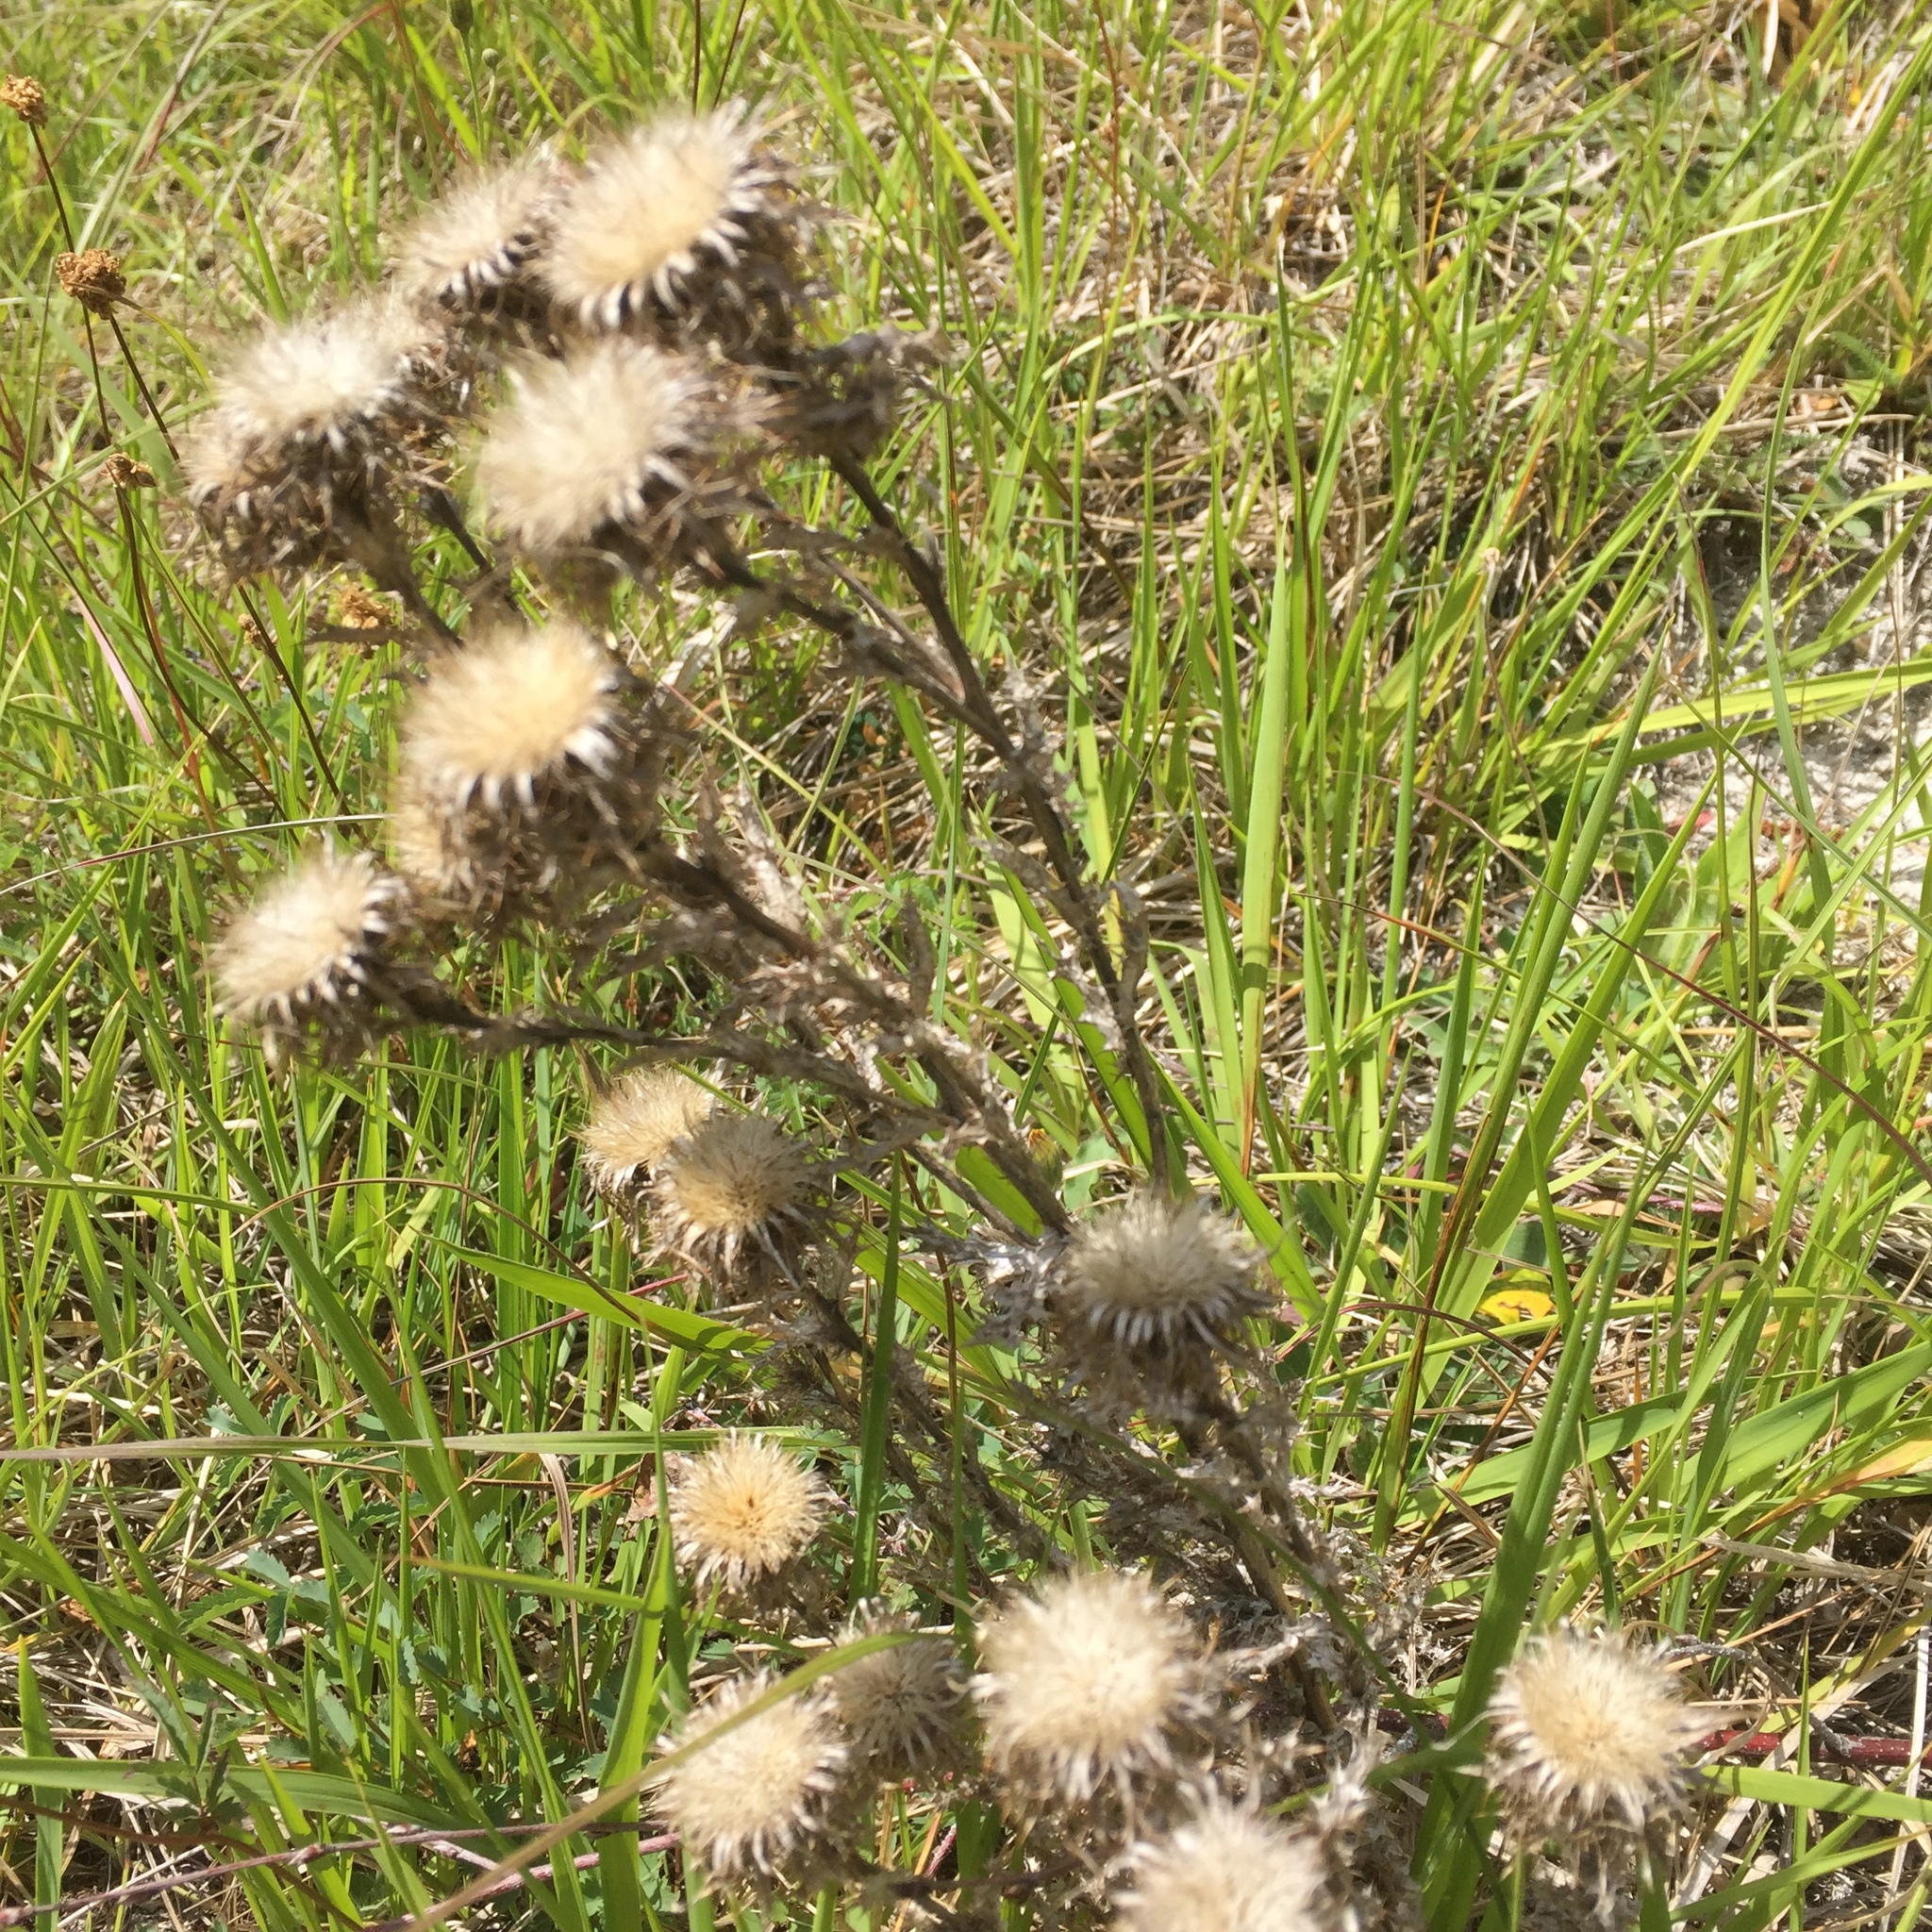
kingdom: Plantae
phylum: Tracheophyta
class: Magnoliopsida
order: Asterales
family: Asteraceae
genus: Carlina
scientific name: Carlina vulgaris
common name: Carline thistle
